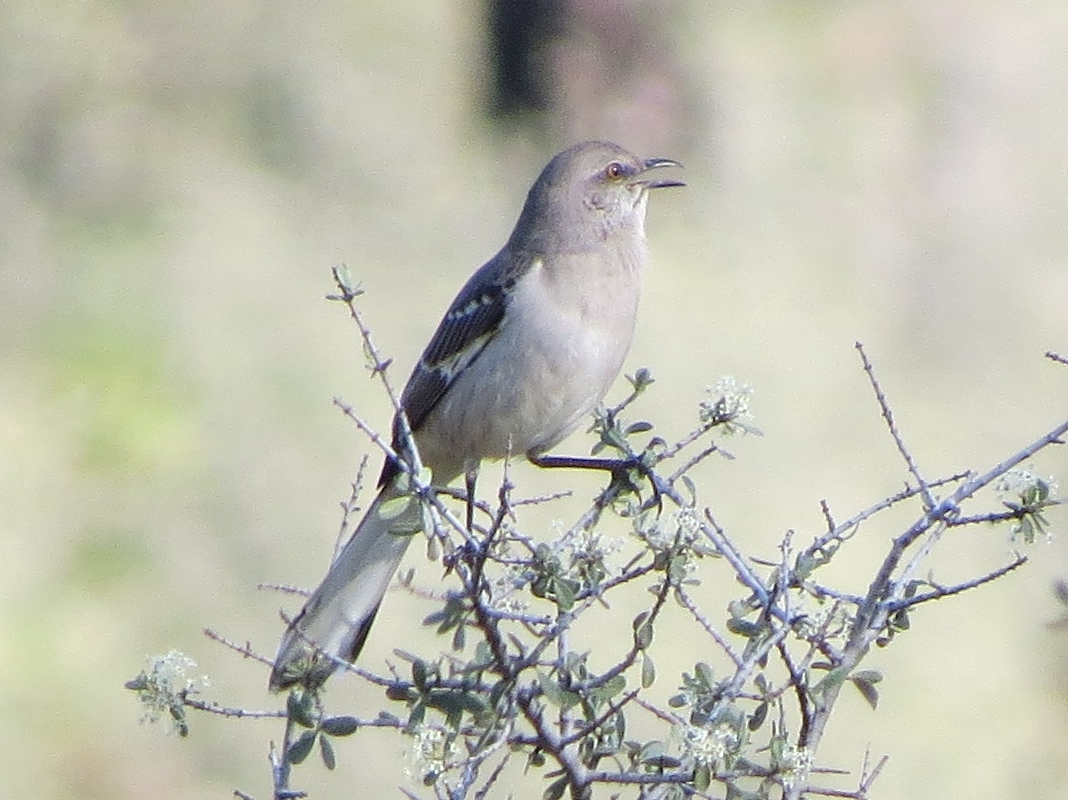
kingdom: Animalia
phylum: Chordata
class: Aves
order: Passeriformes
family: Mimidae
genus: Mimus
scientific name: Mimus polyglottos
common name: Northern mockingbird
